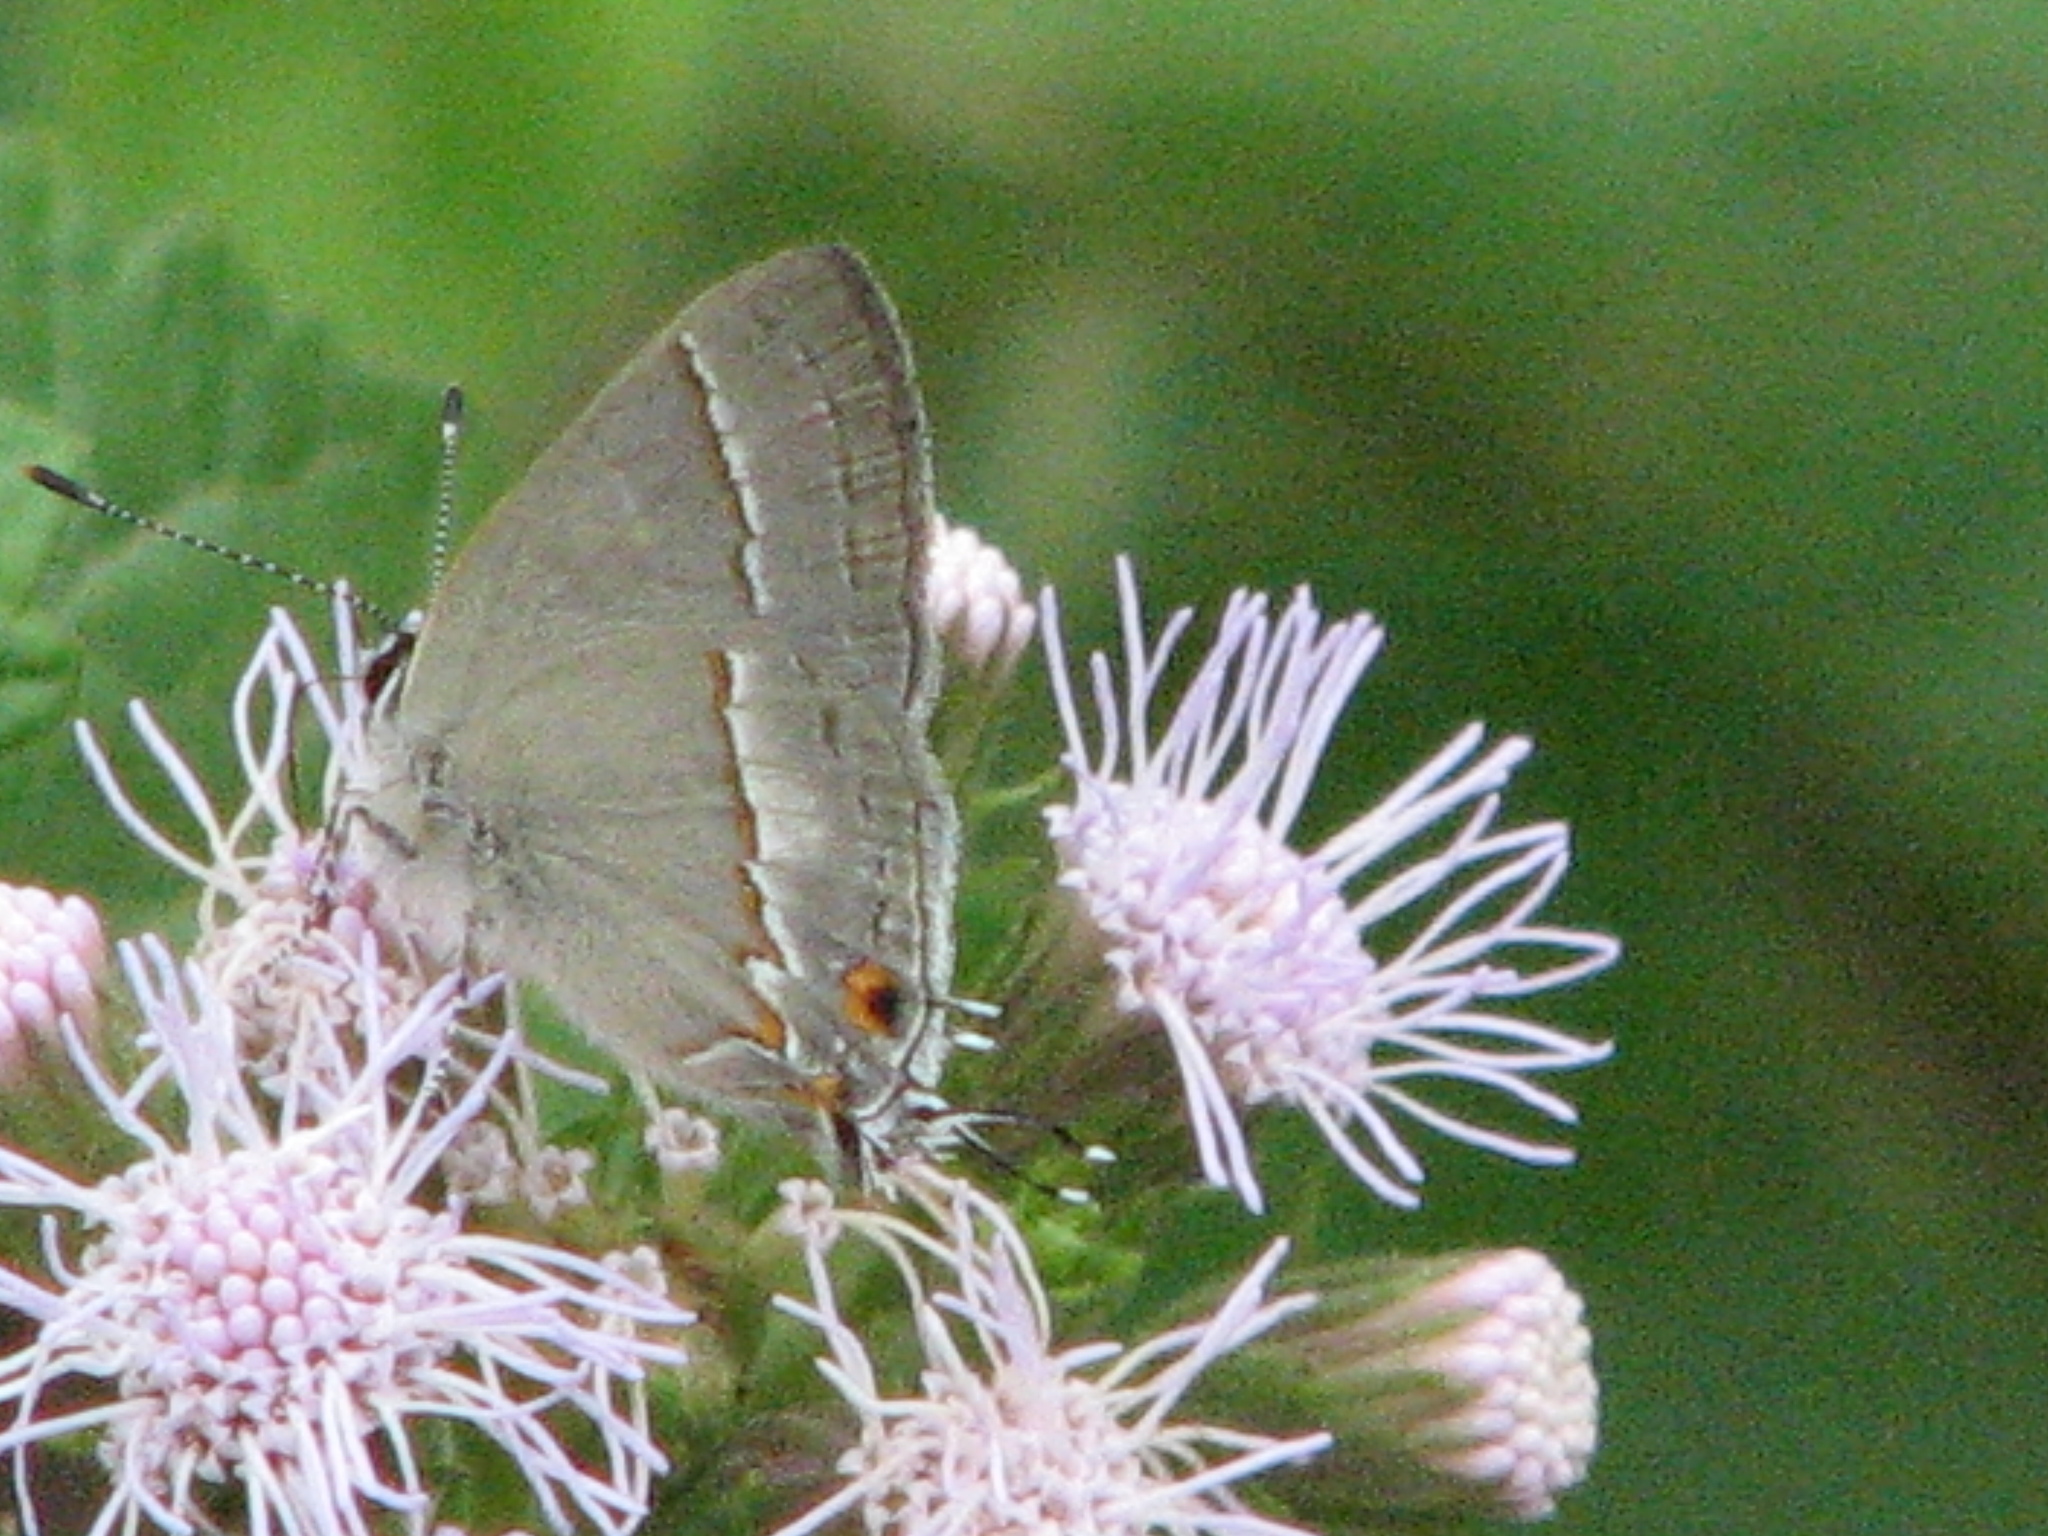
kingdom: Animalia
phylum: Arthropoda
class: Insecta
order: Lepidoptera
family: Lycaenidae
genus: Thecla
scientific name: Thecla serapio
